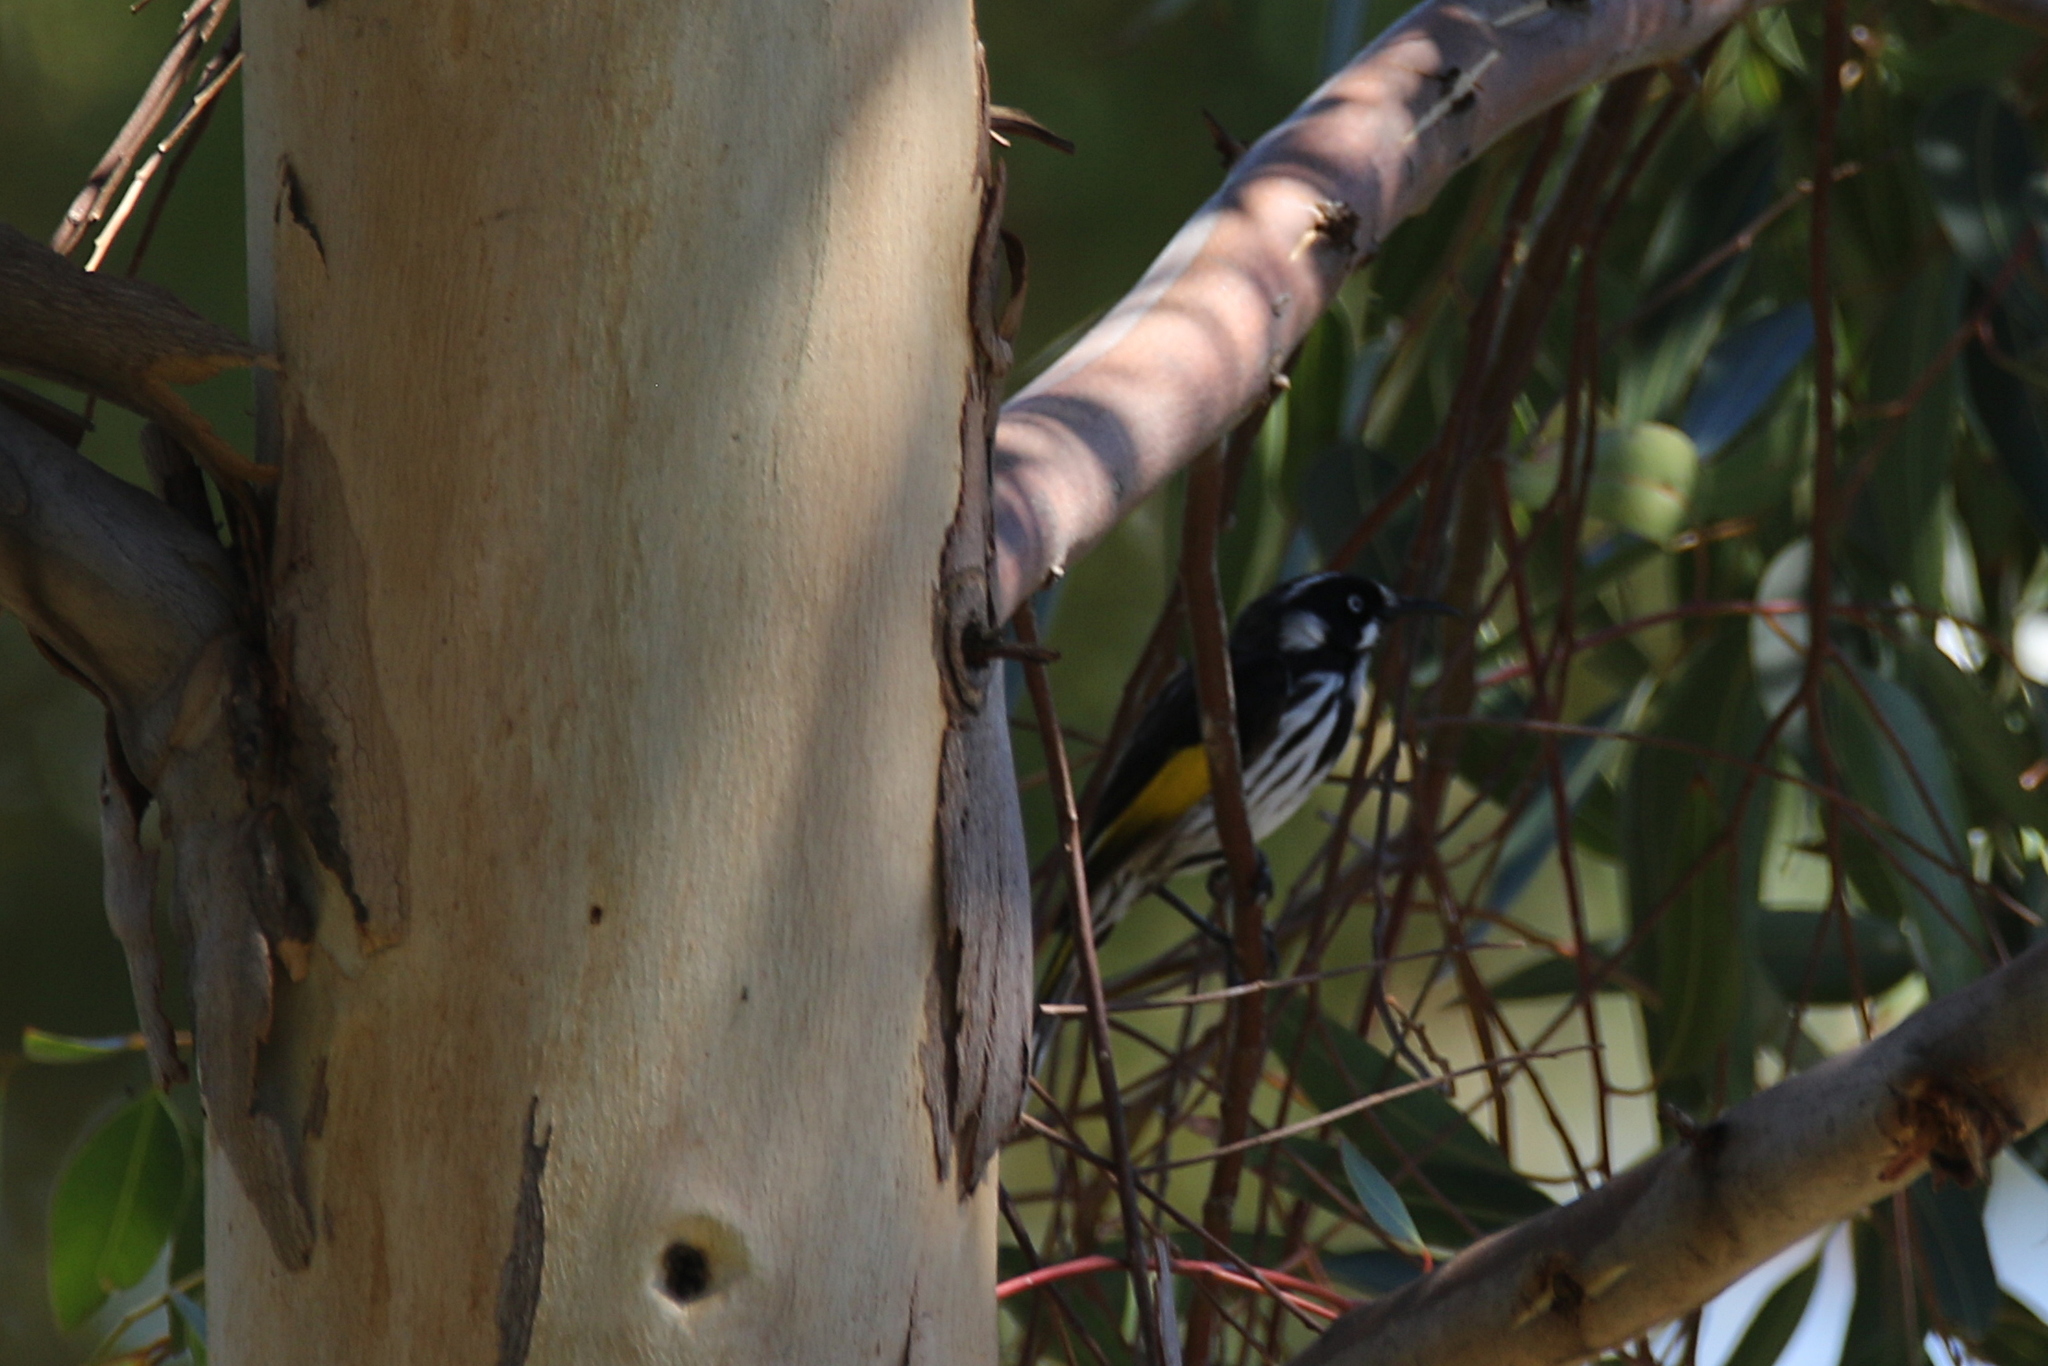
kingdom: Animalia
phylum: Chordata
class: Aves
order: Passeriformes
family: Meliphagidae
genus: Phylidonyris
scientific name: Phylidonyris novaehollandiae
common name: New holland honeyeater
